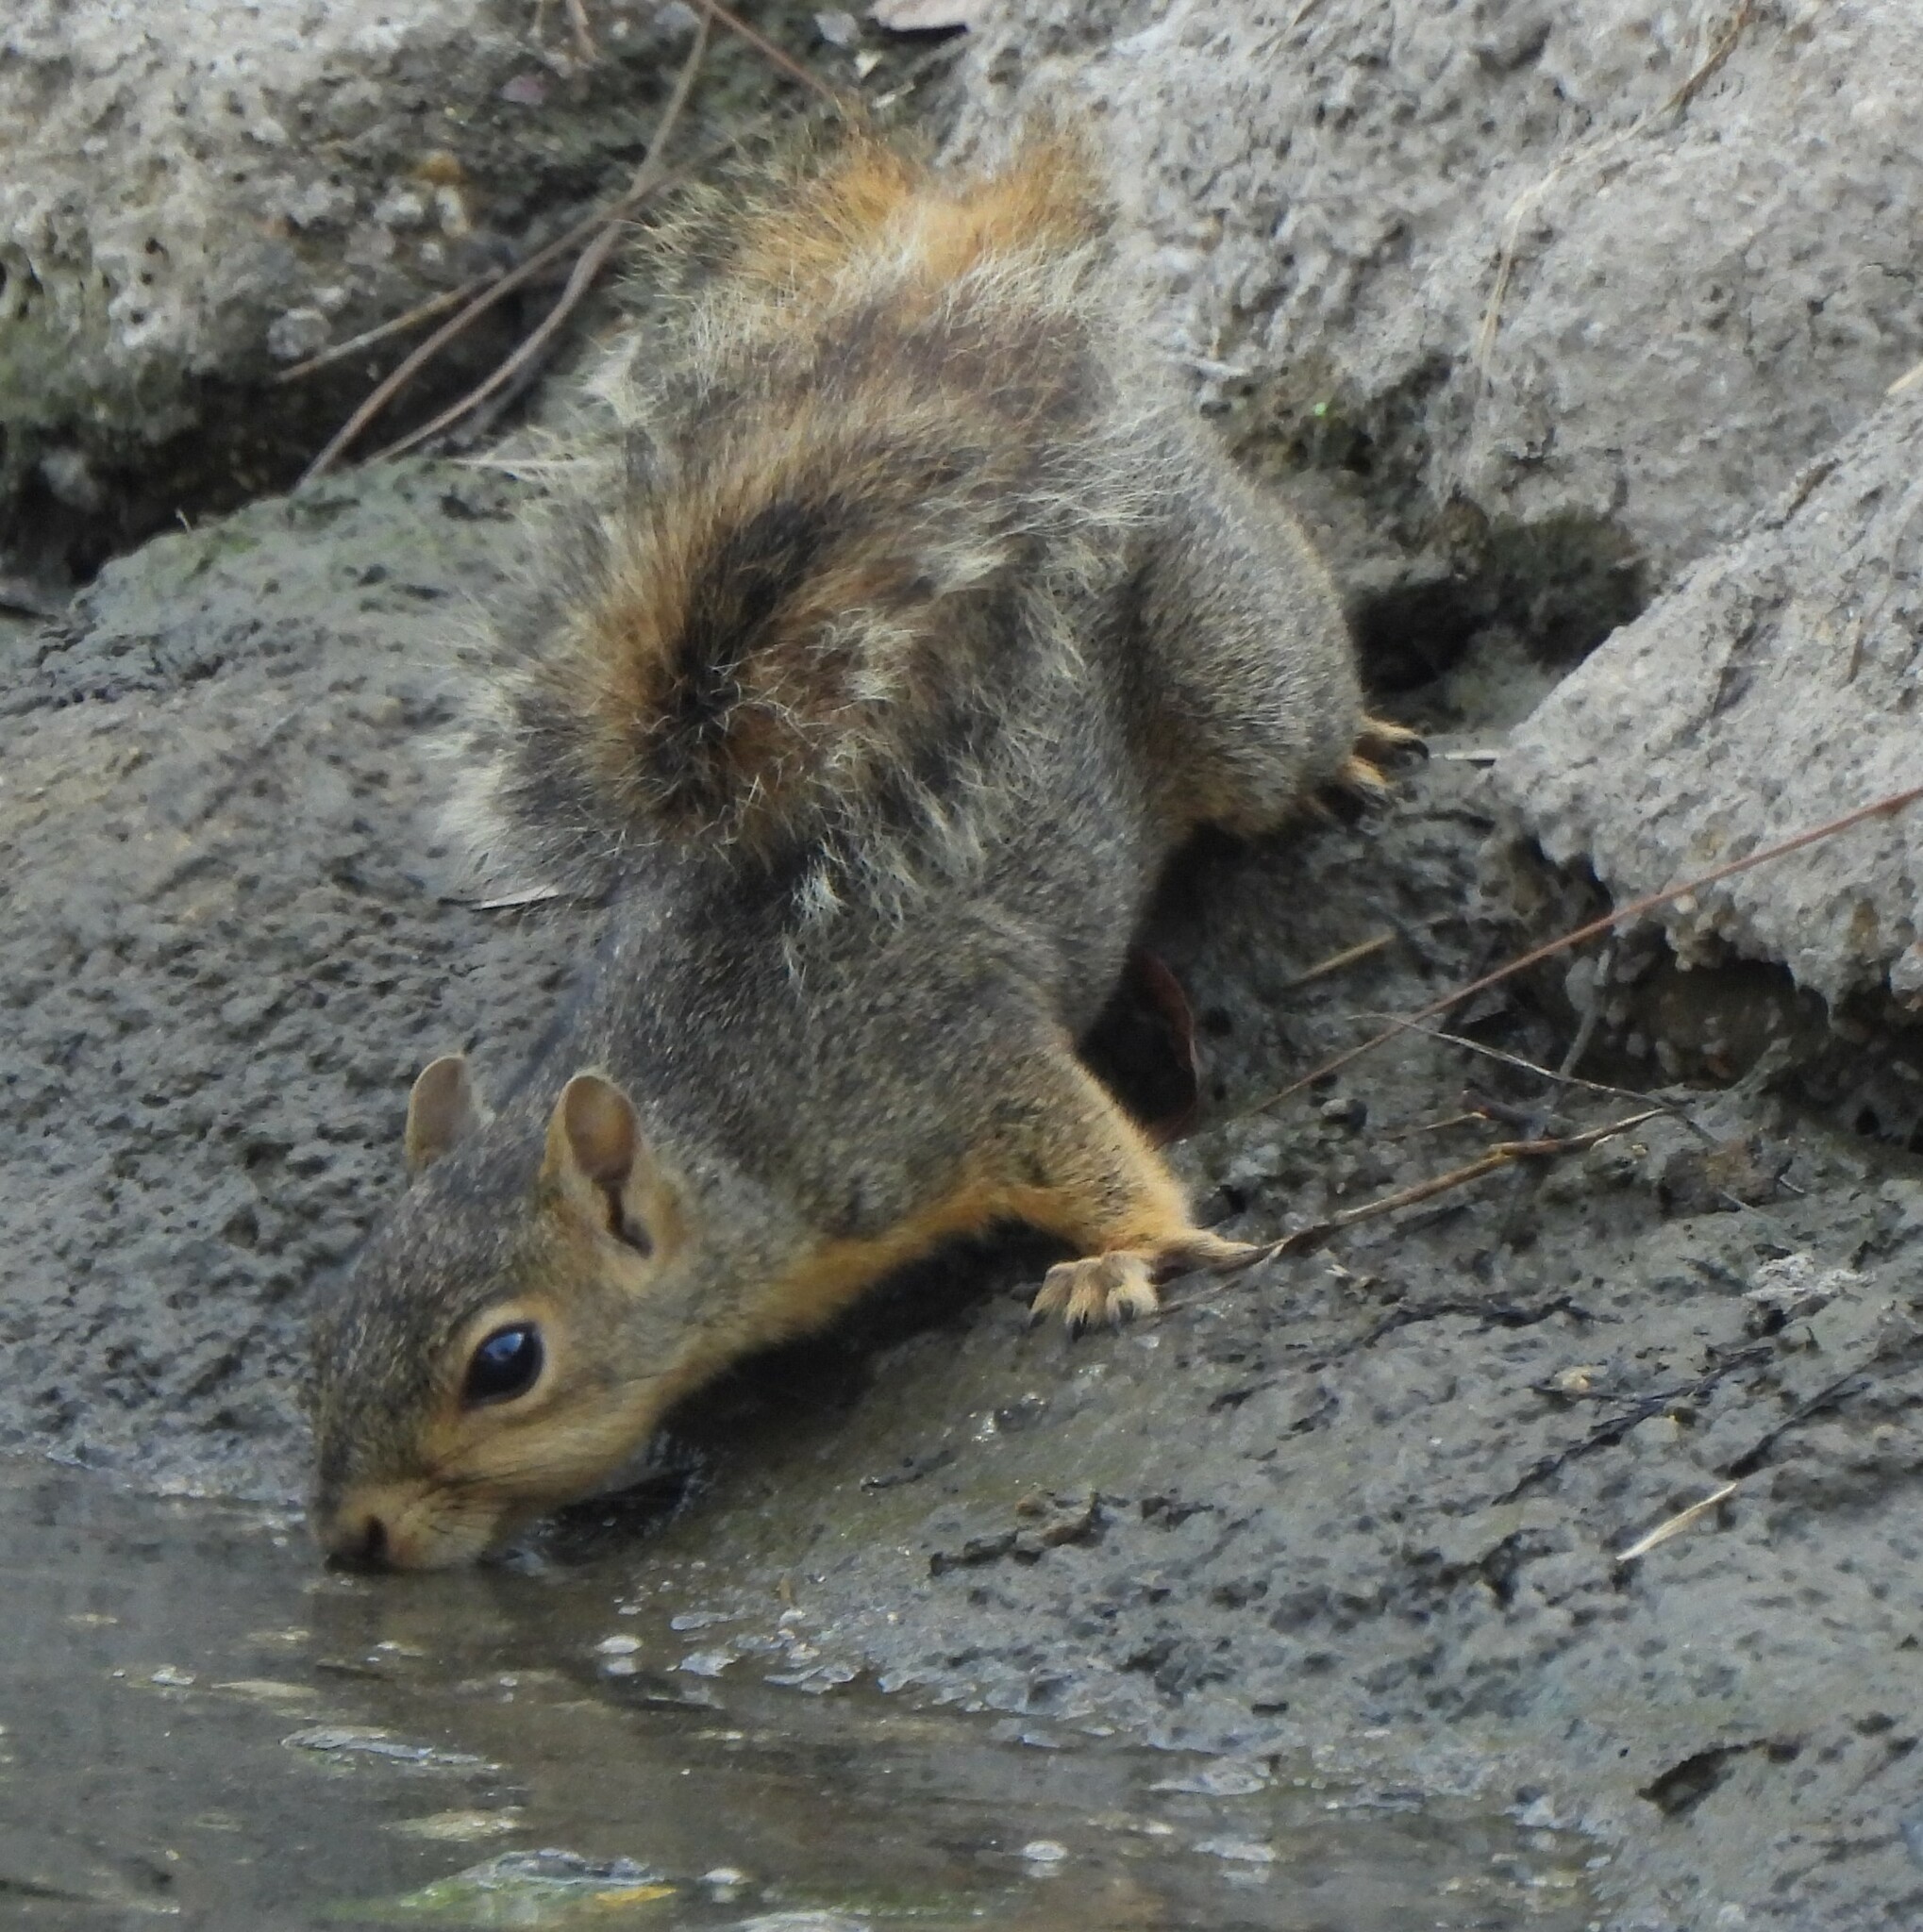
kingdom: Animalia
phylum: Chordata
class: Mammalia
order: Rodentia
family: Sciuridae
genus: Sciurus
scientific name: Sciurus niger
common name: Fox squirrel
